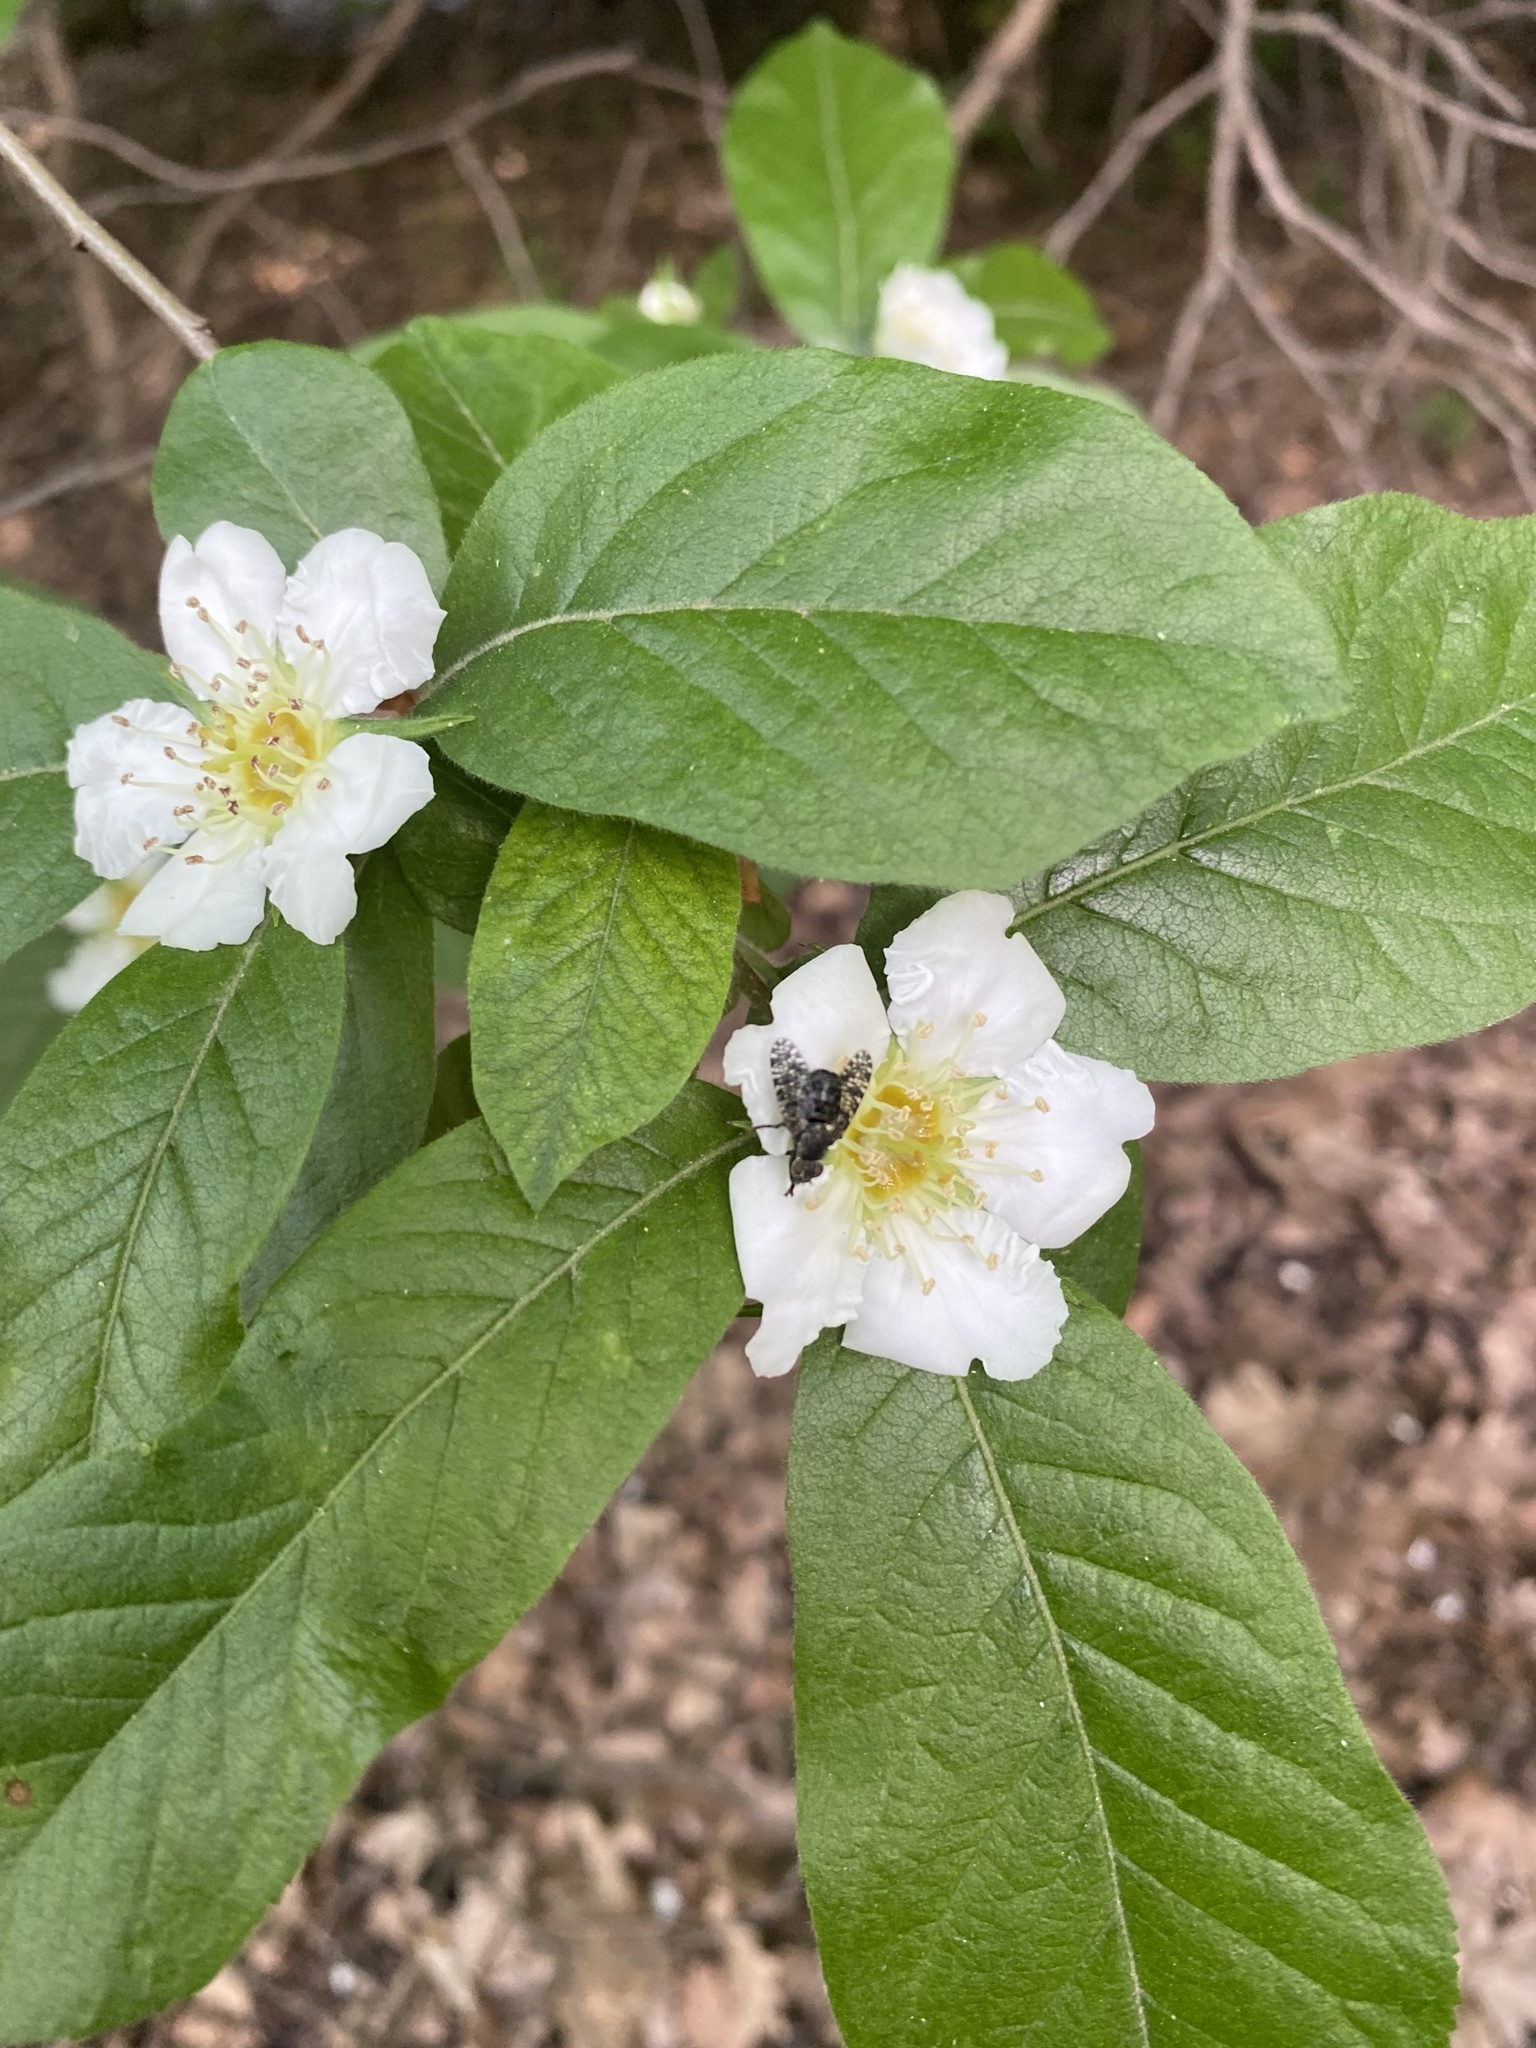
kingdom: Animalia
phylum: Arthropoda
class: Insecta
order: Diptera
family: Platystomatidae
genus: Platystoma
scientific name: Platystoma seminationis
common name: Fly
